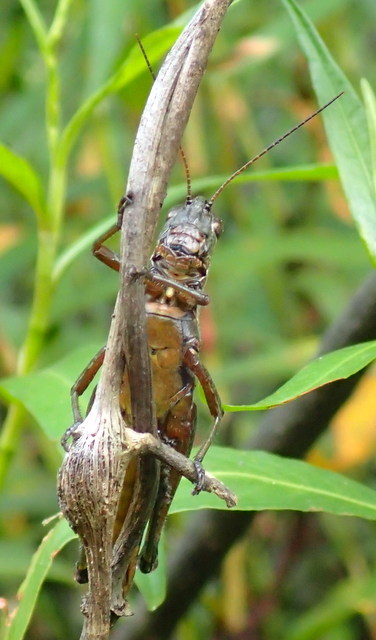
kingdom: Animalia
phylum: Arthropoda
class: Insecta
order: Orthoptera
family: Acrididae
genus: Paroxya
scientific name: Paroxya clavuligera
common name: Olive-green swamp grasshopper
